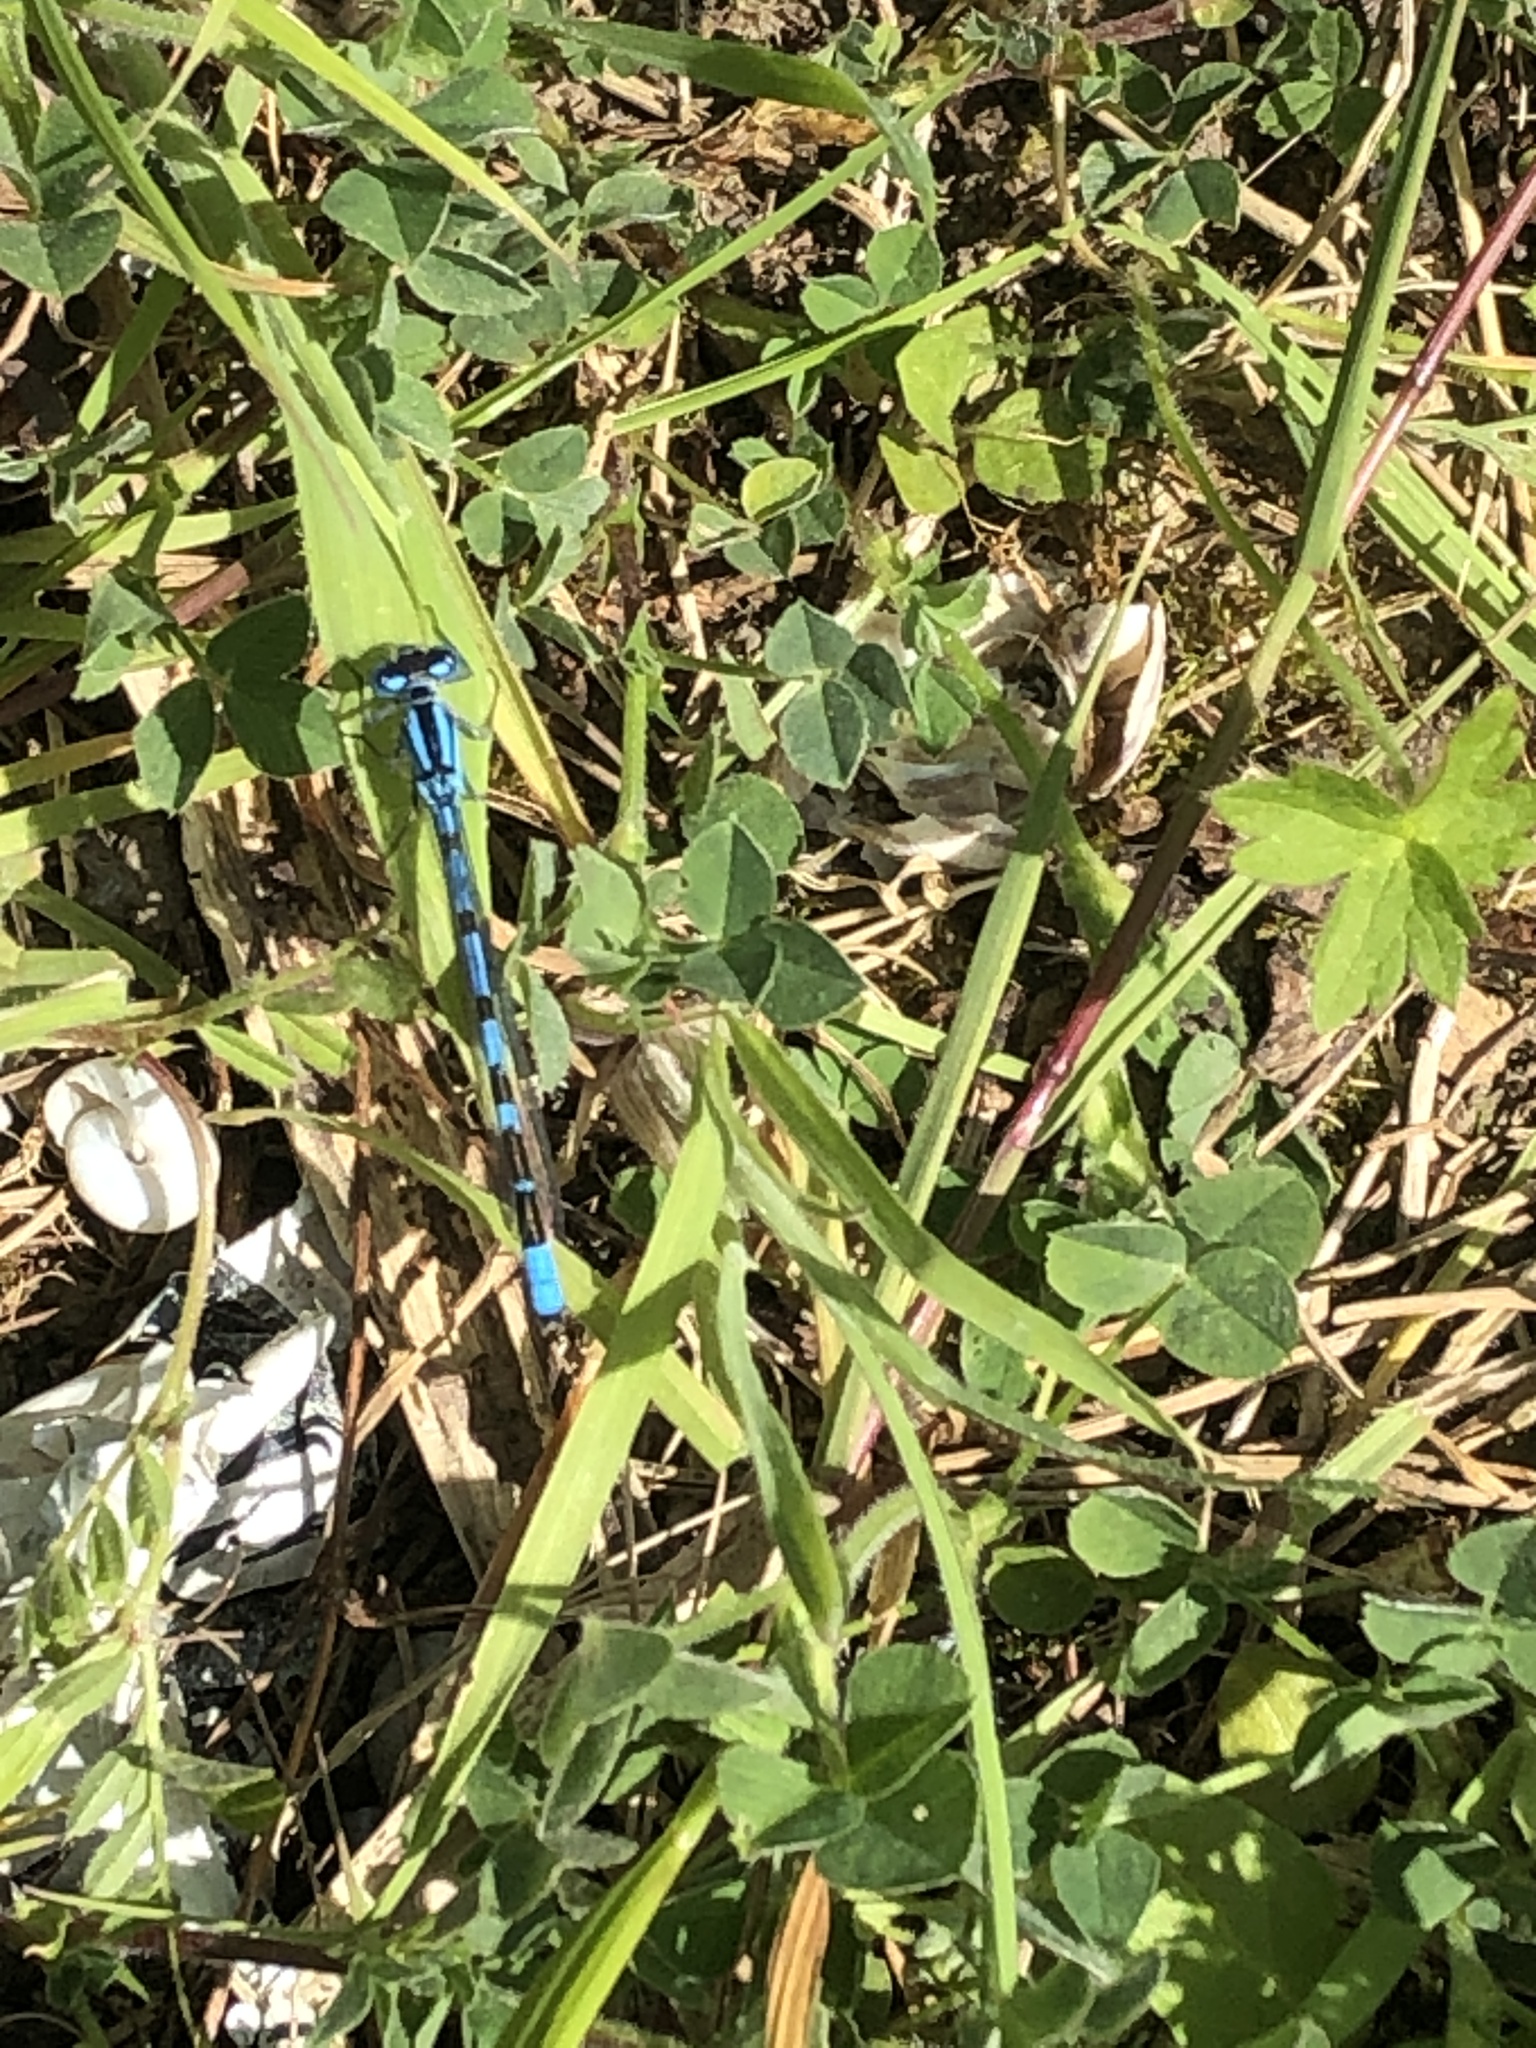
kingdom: Animalia
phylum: Arthropoda
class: Insecta
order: Odonata
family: Coenagrionidae
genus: Enallagma
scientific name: Enallagma cyathigerum
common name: Common blue damselfly
